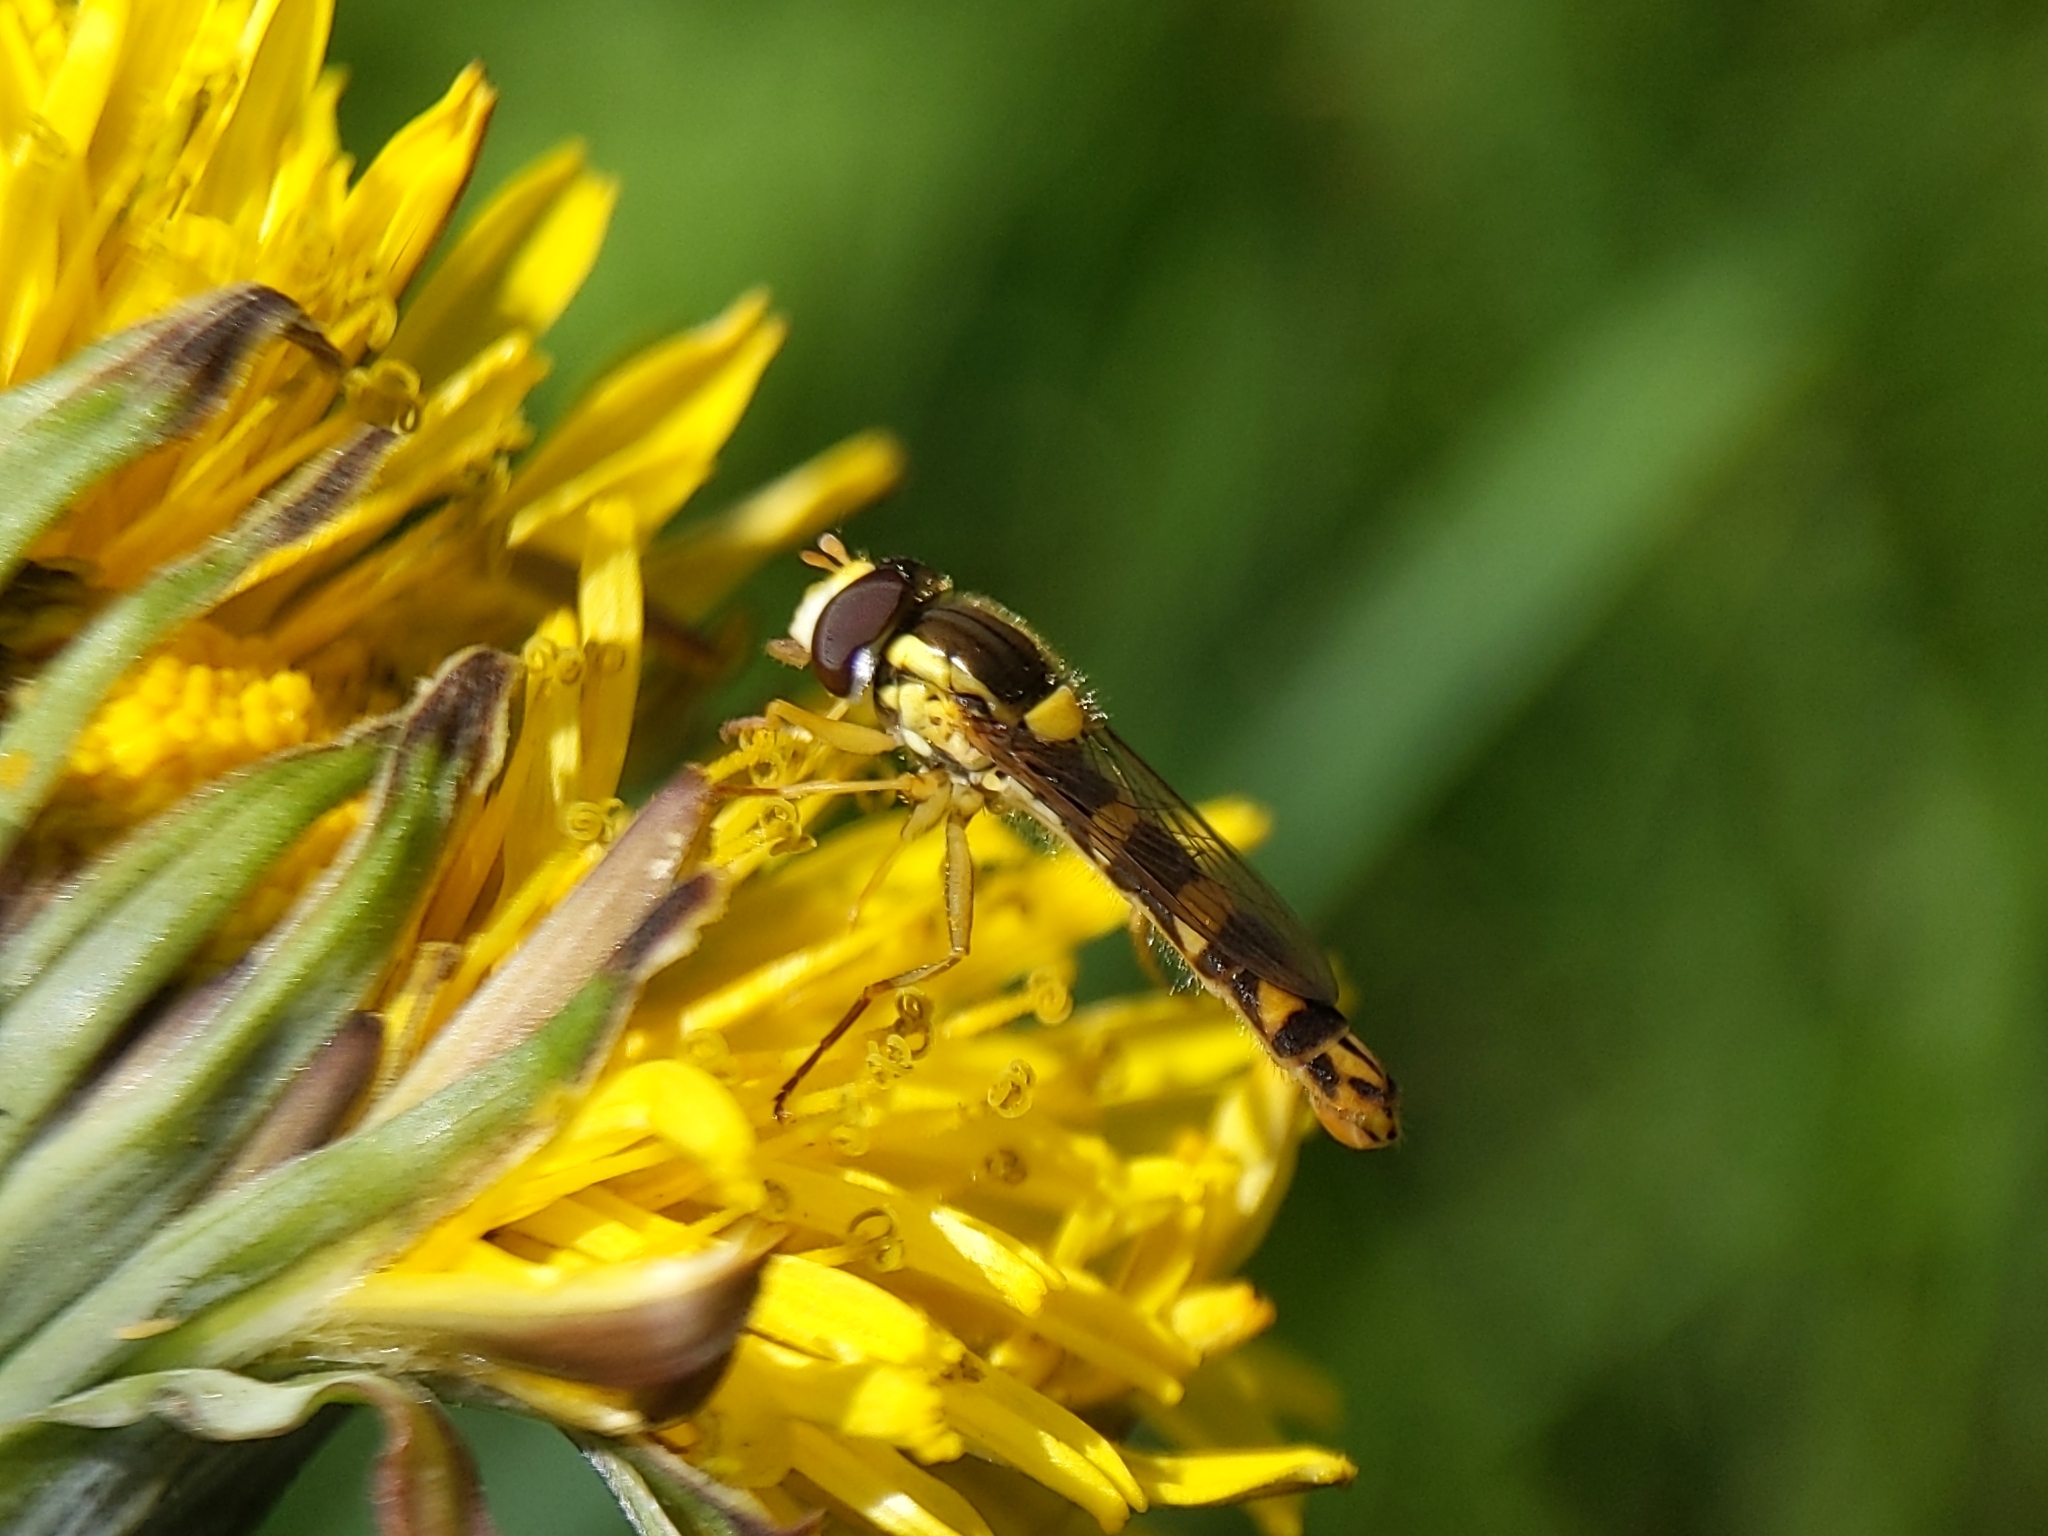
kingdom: Animalia
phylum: Arthropoda
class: Insecta
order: Diptera
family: Syrphidae
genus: Sphaerophoria
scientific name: Sphaerophoria scripta
